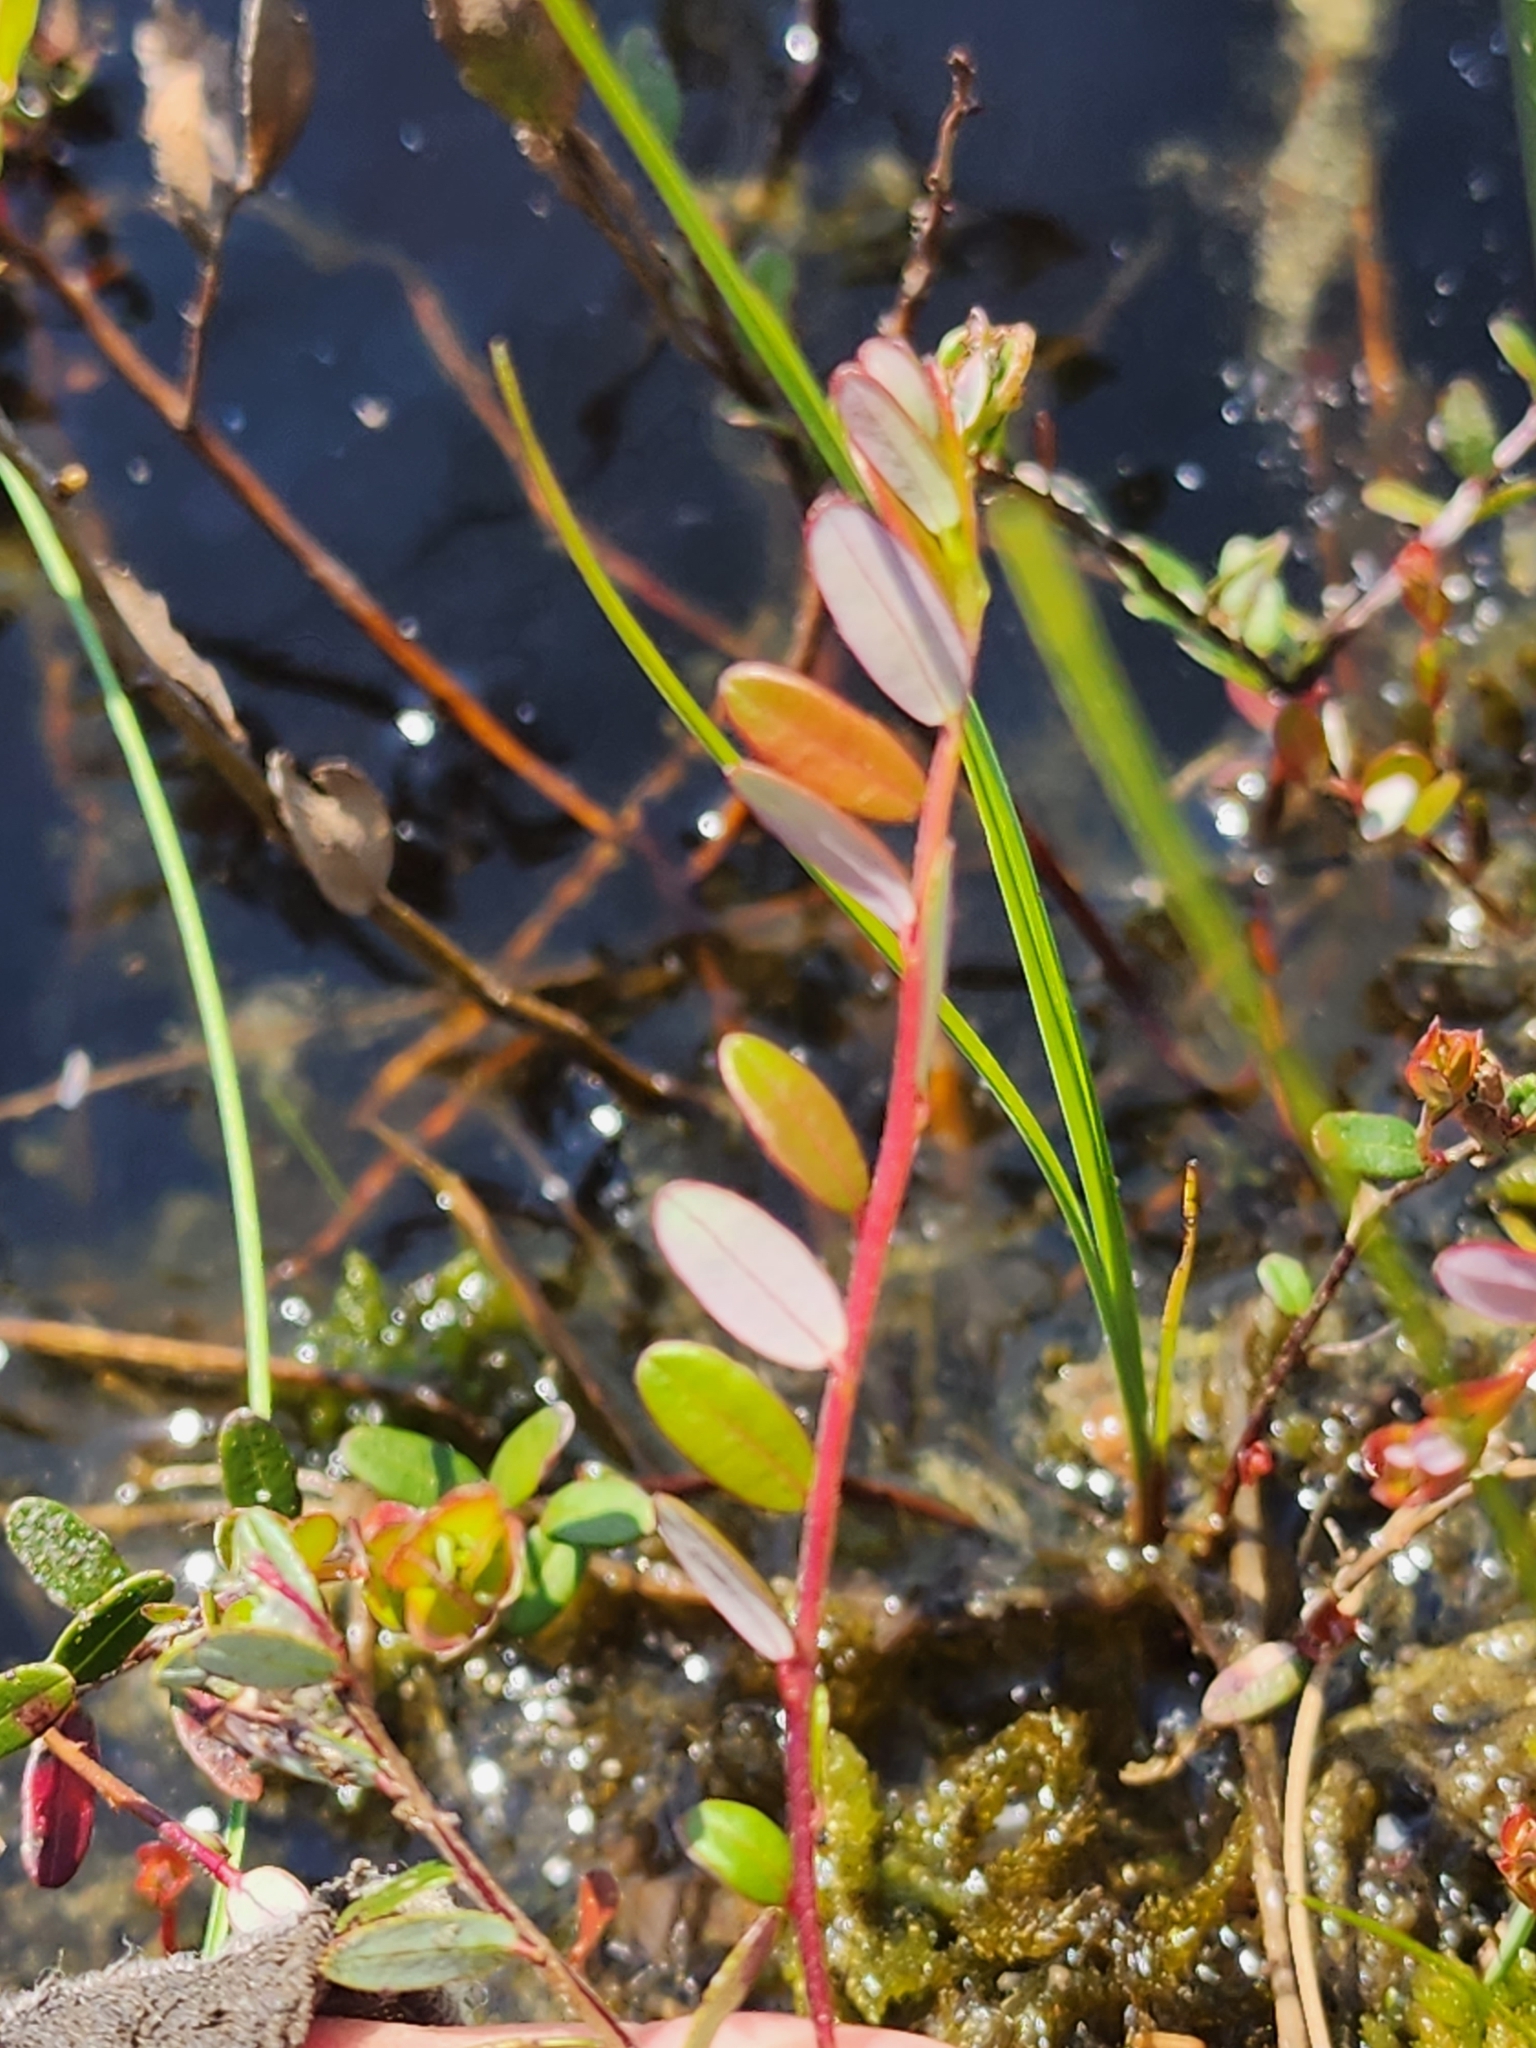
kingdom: Plantae
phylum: Tracheophyta
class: Magnoliopsida
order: Ericales
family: Ericaceae
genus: Vaccinium
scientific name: Vaccinium macrocarpon
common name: American cranberry
